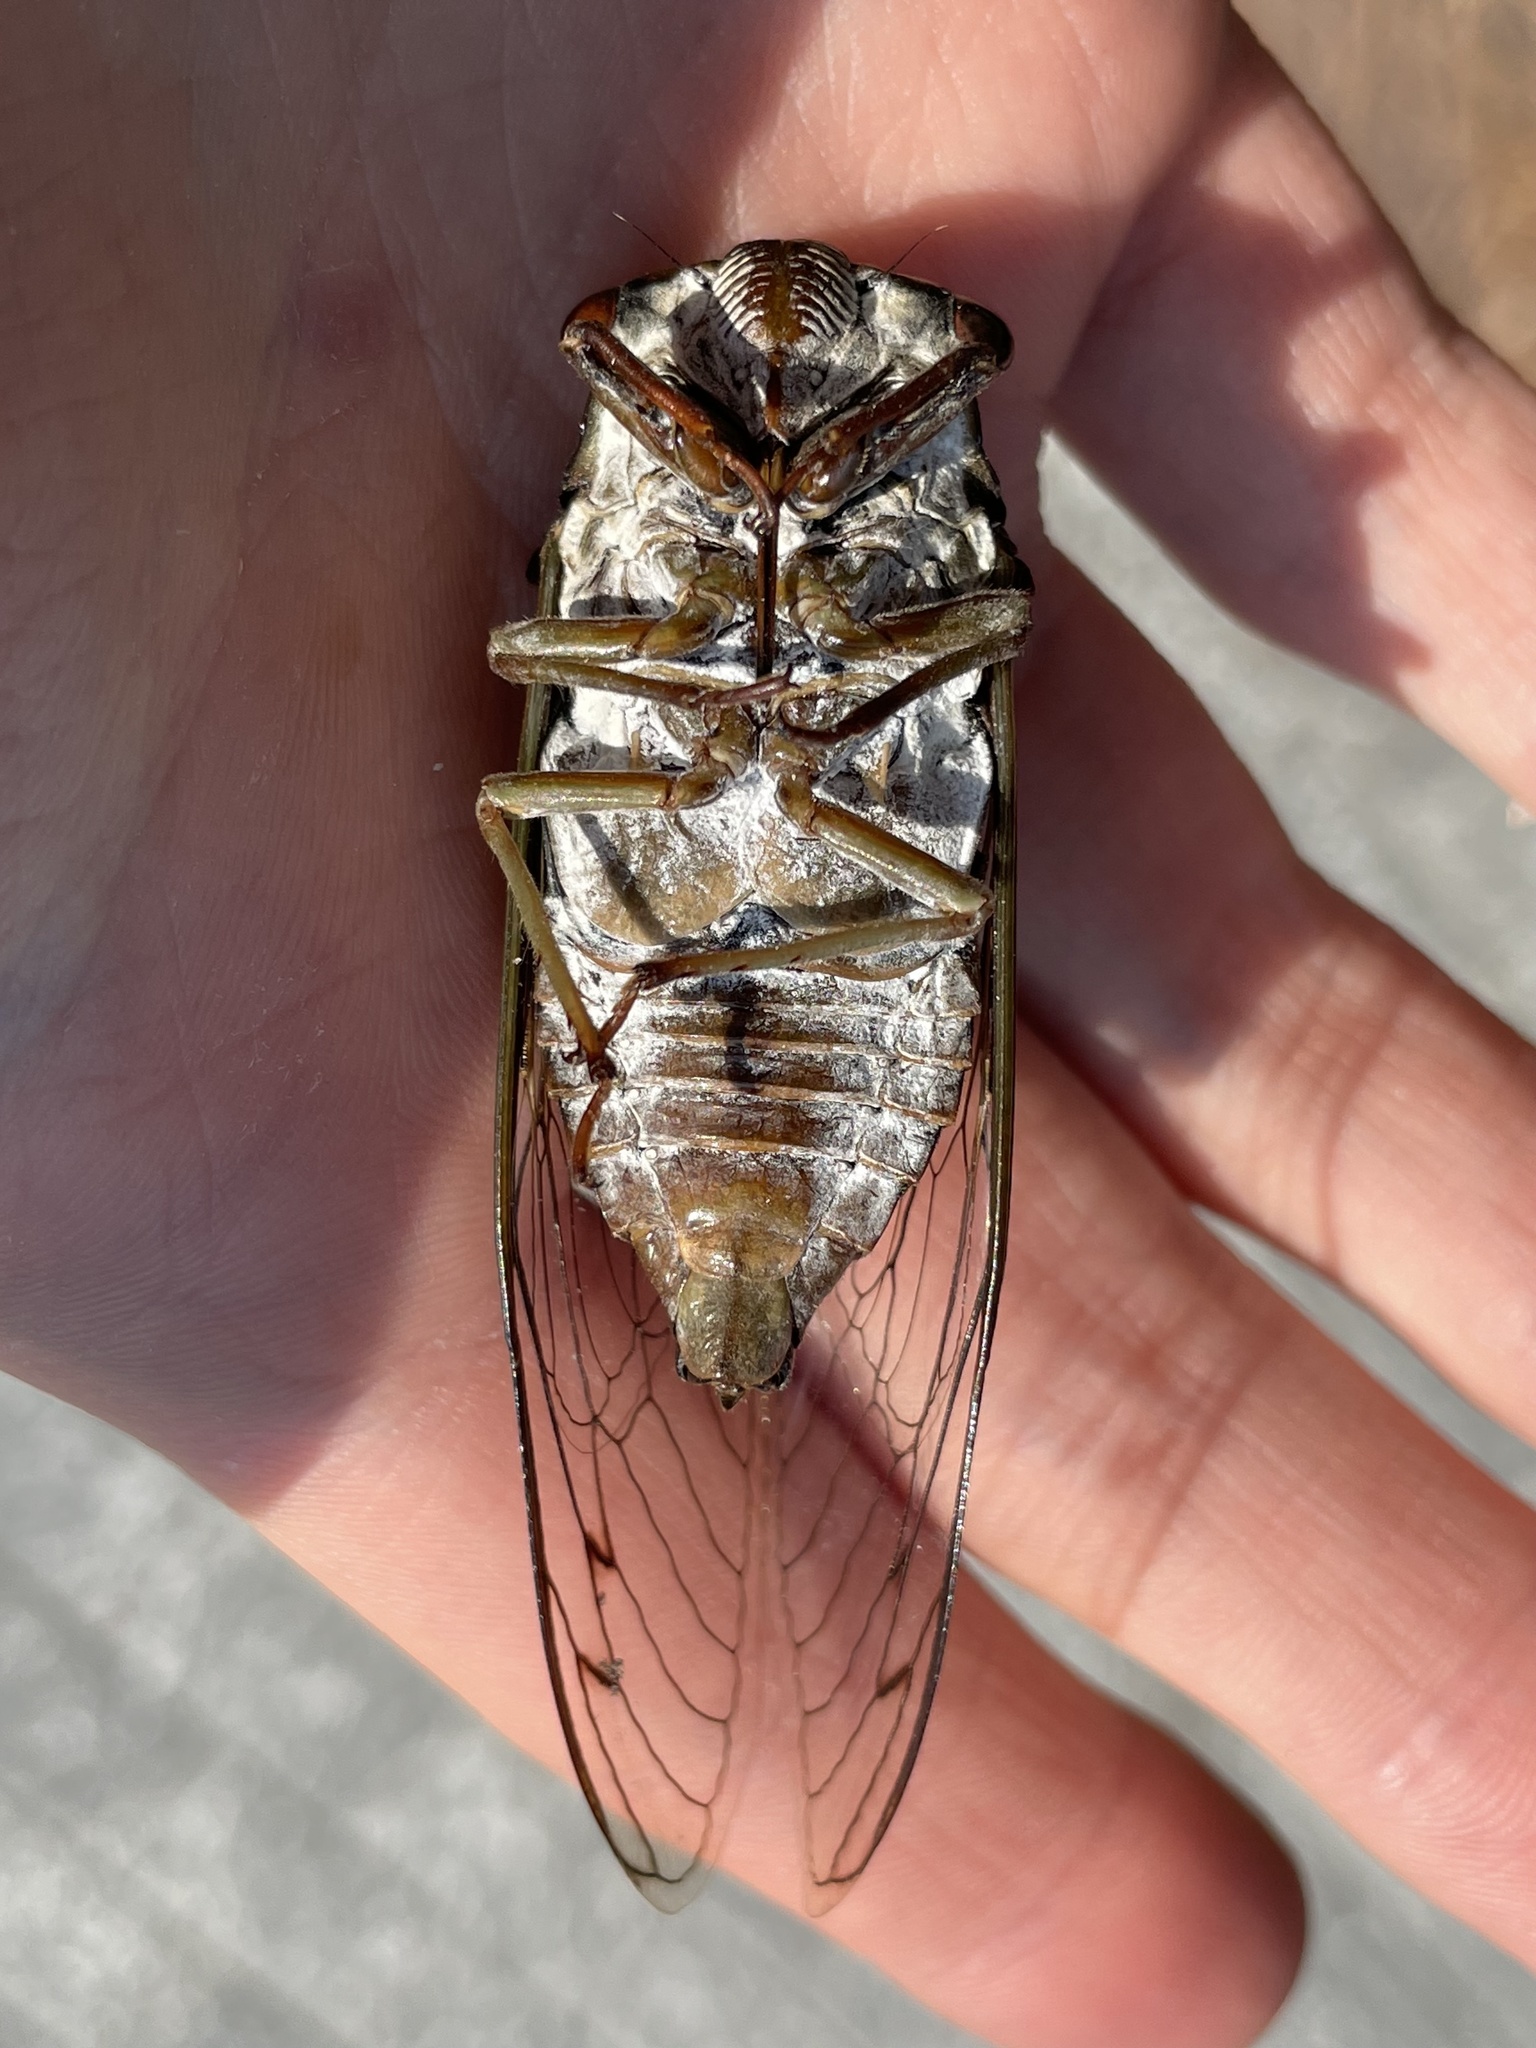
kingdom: Animalia
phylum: Arthropoda
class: Insecta
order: Hemiptera
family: Cicadidae
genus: Megatibicen
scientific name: Megatibicen resonans
